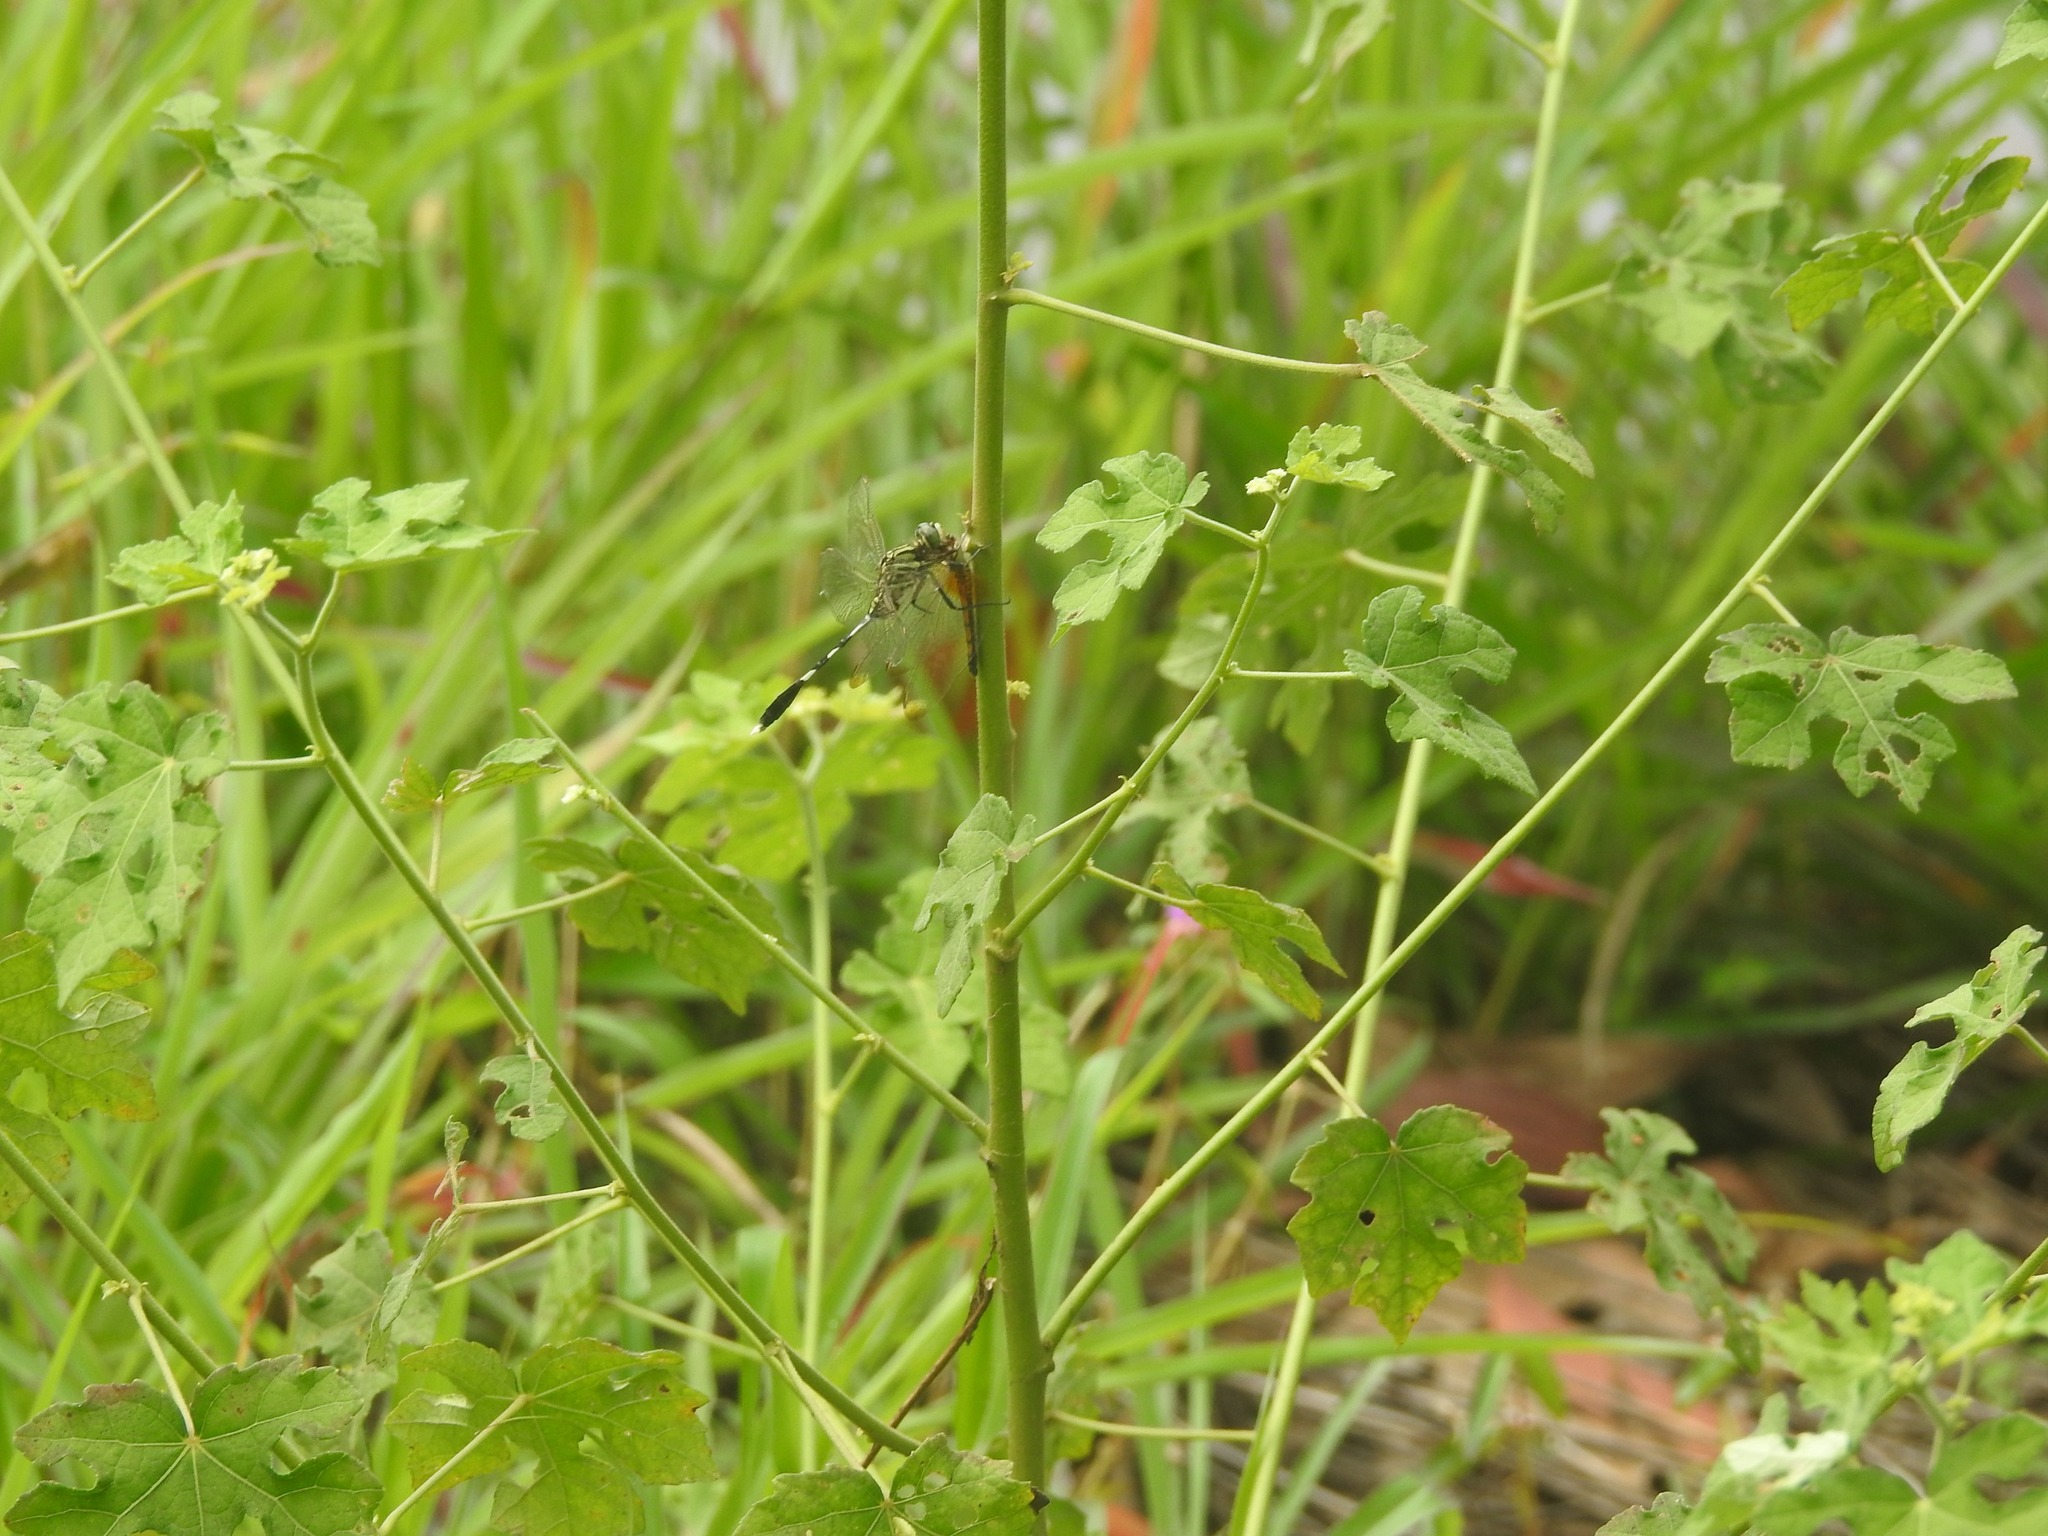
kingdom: Animalia
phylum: Arthropoda
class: Insecta
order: Odonata
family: Libellulidae
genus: Orthetrum
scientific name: Orthetrum sabina
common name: Slender skimmer
